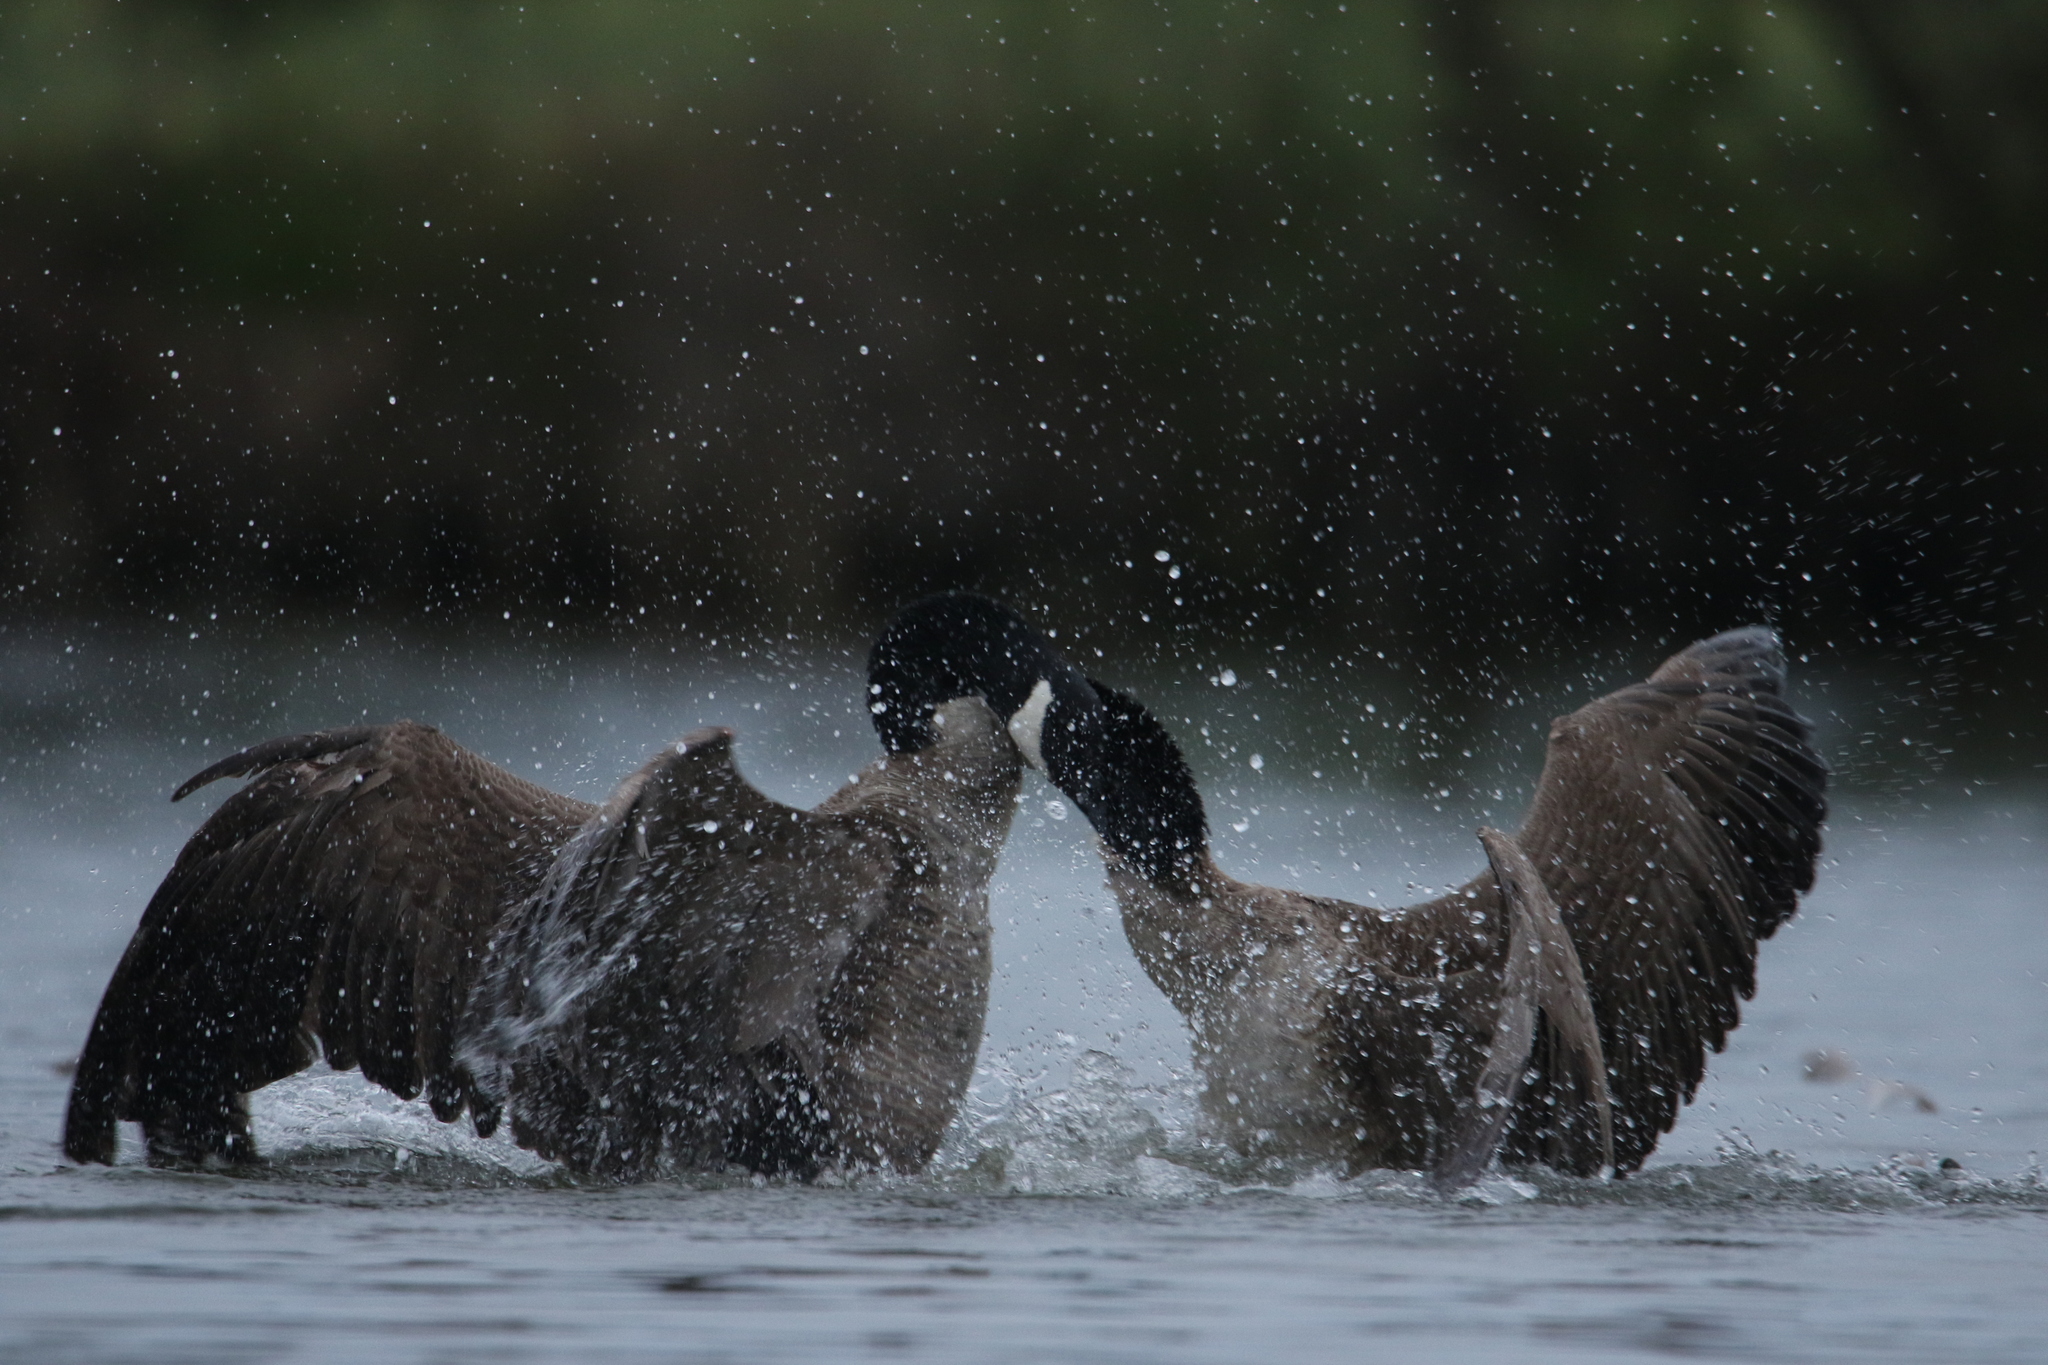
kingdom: Animalia
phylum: Chordata
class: Aves
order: Anseriformes
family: Anatidae
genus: Branta
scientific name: Branta canadensis
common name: Canada goose
